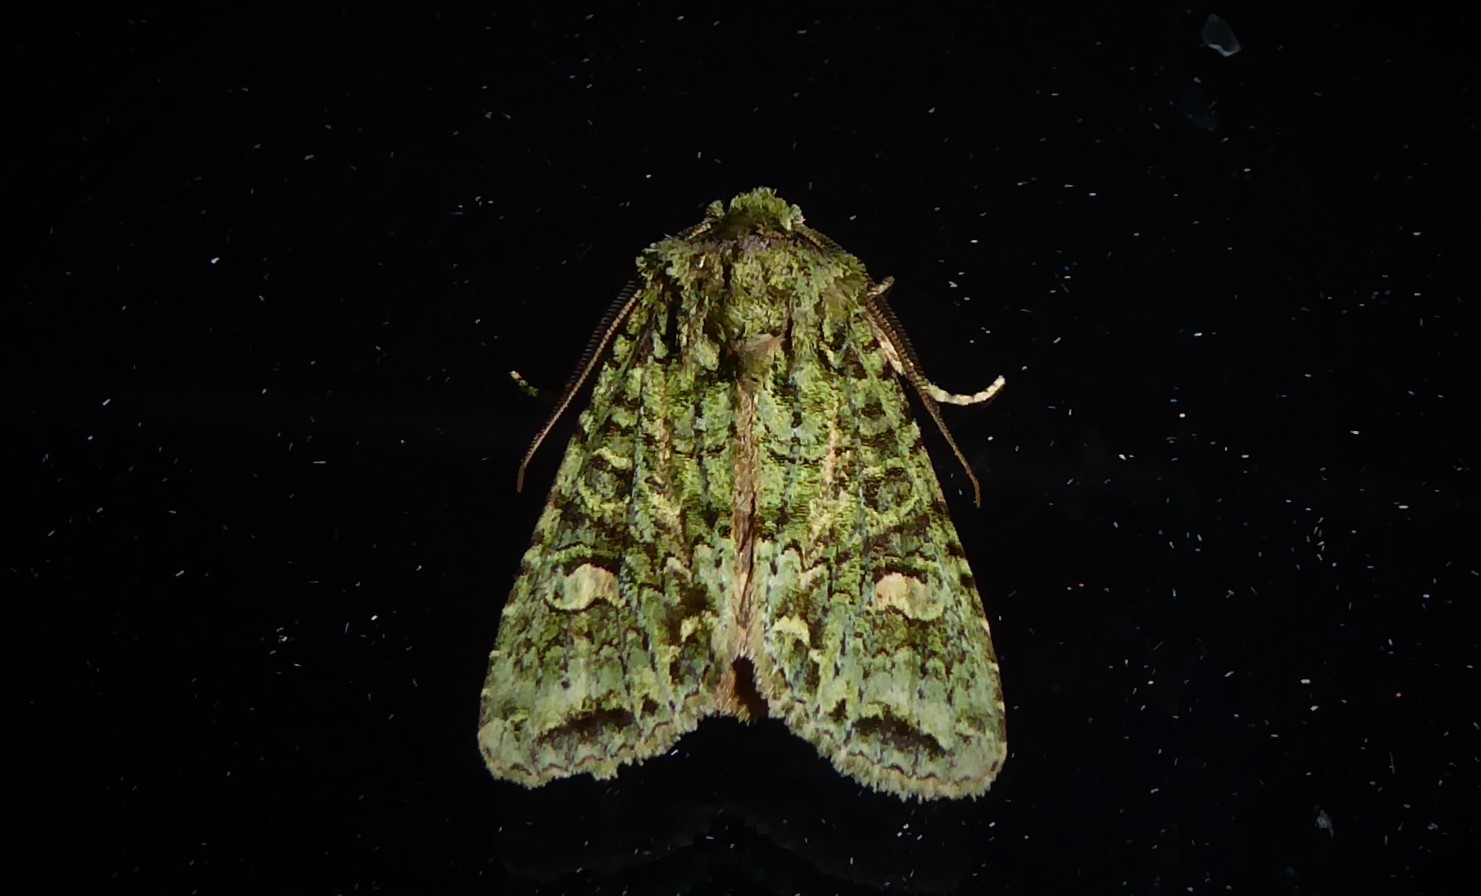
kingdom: Animalia
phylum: Arthropoda
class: Insecta
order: Lepidoptera
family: Noctuidae
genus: Ichneutica
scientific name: Ichneutica
